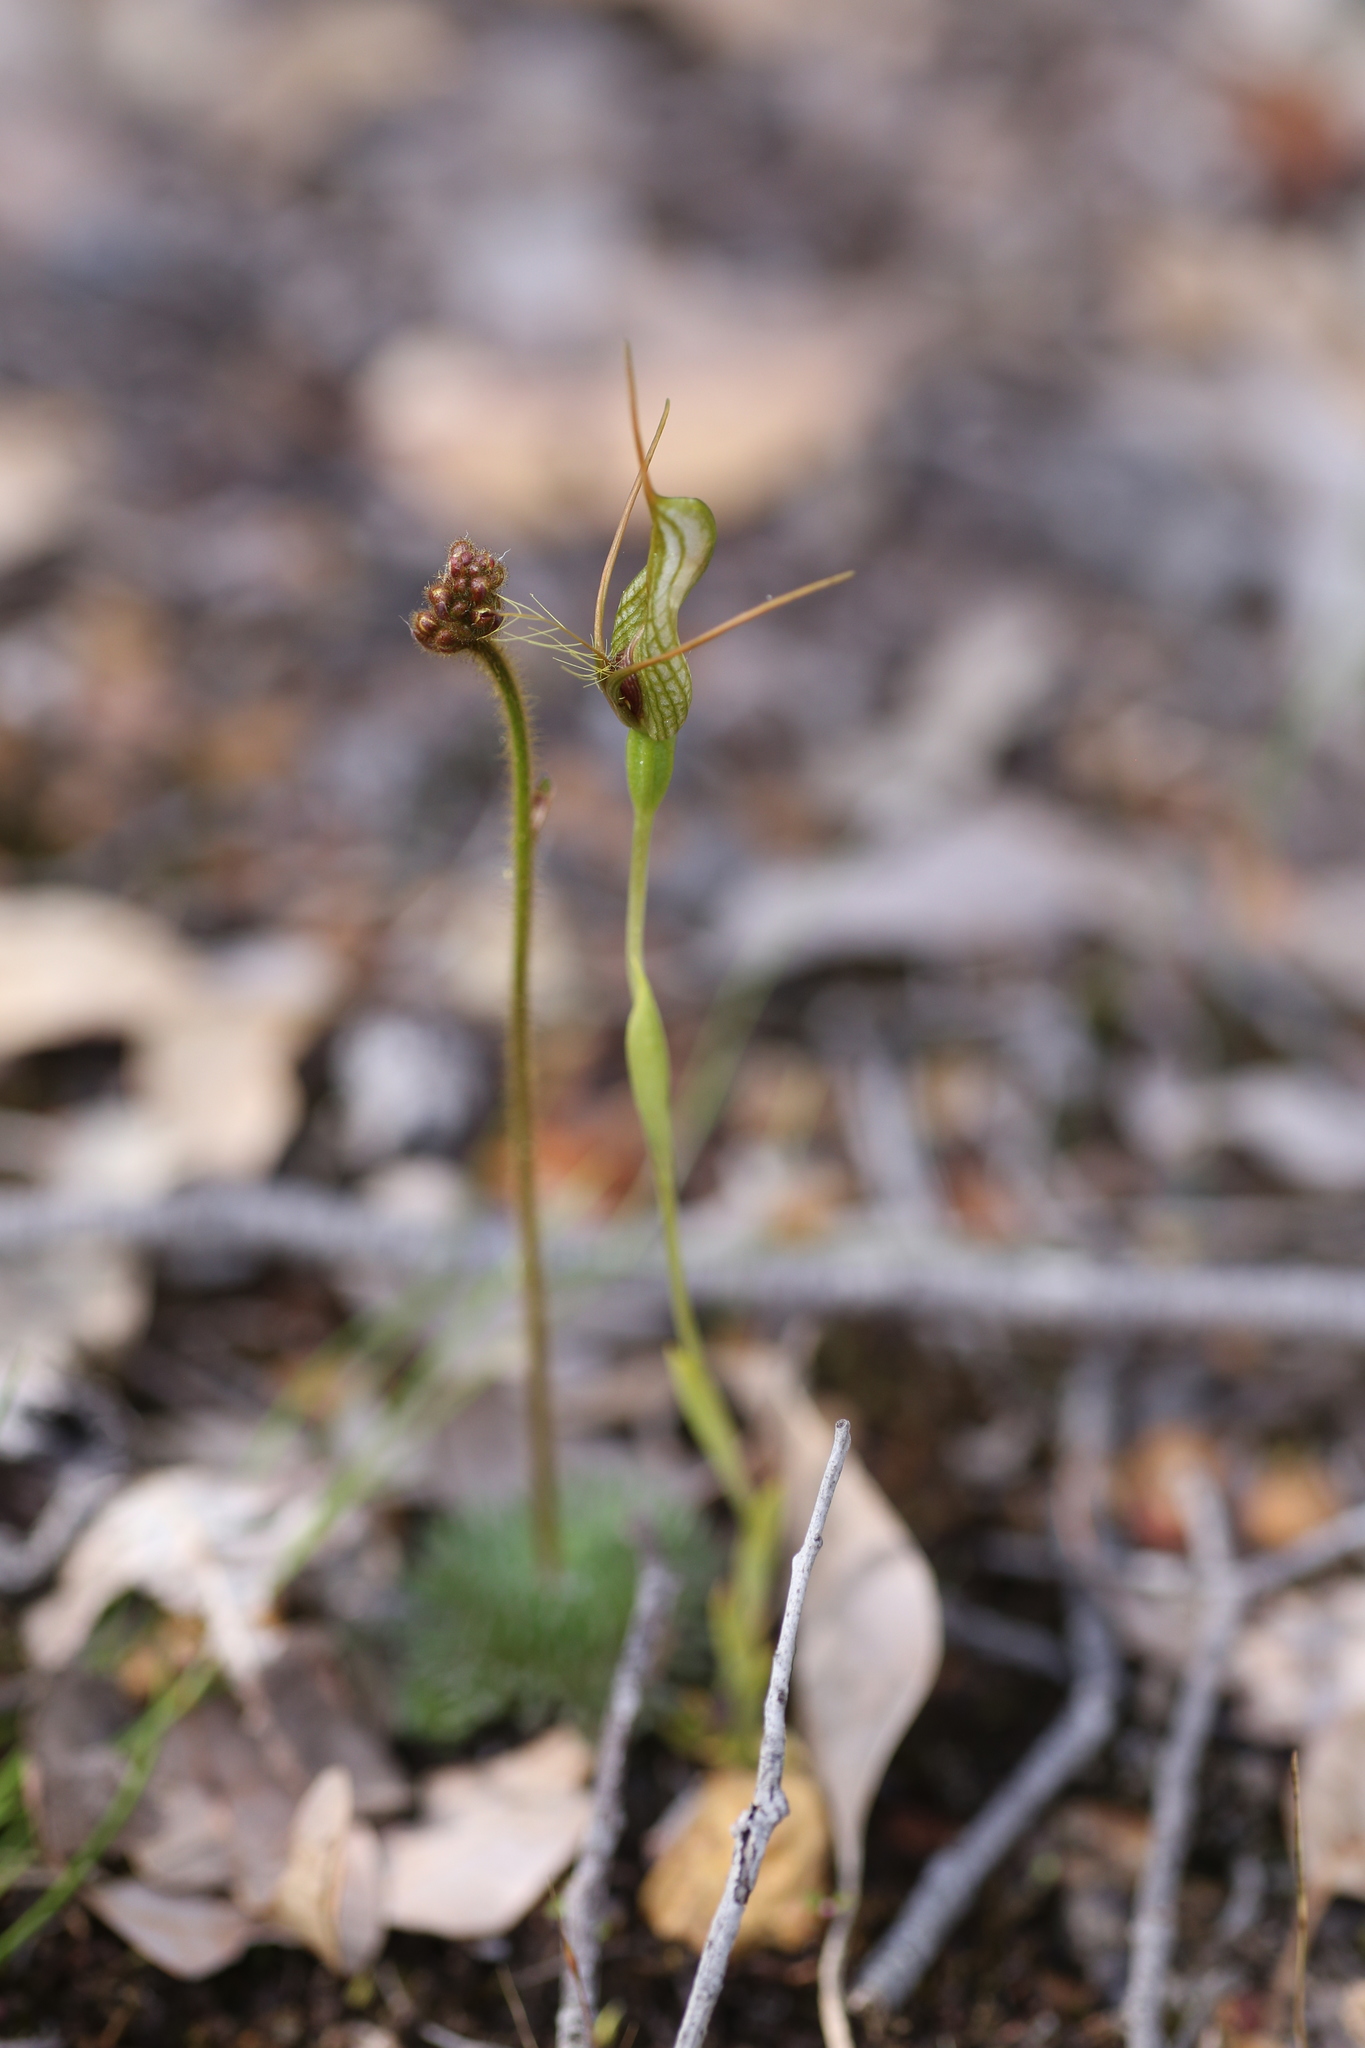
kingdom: Plantae
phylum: Tracheophyta
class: Liliopsida
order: Asparagales
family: Orchidaceae
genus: Pterostylis
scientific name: Pterostylis barbata
